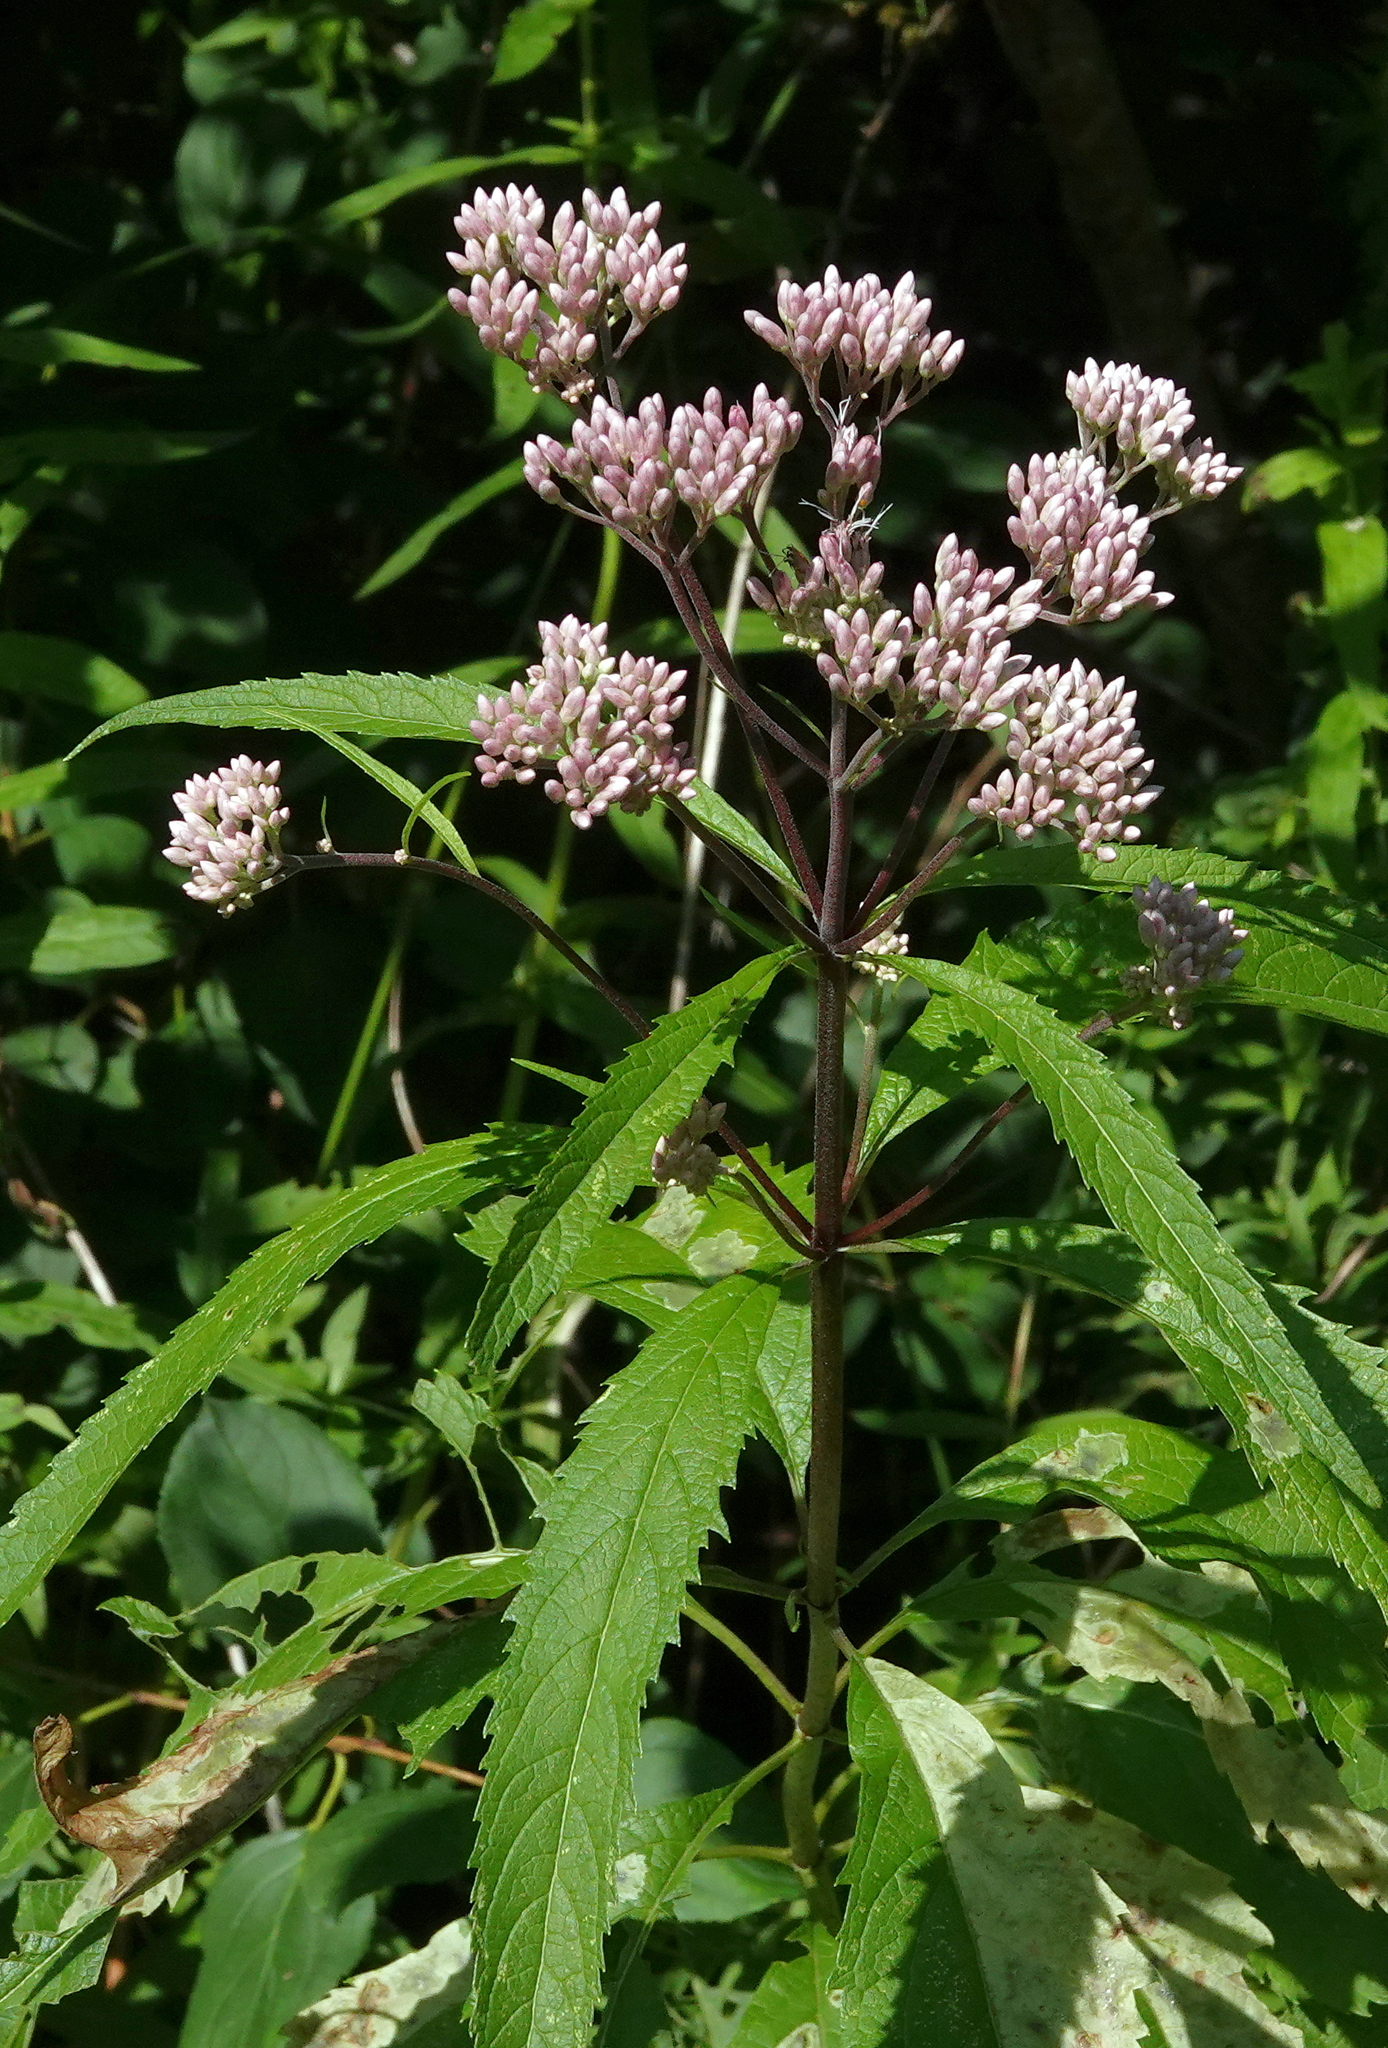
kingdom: Plantae
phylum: Tracheophyta
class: Magnoliopsida
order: Asterales
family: Asteraceae
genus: Eutrochium
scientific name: Eutrochium maculatum
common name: Spotted joe pye weed
